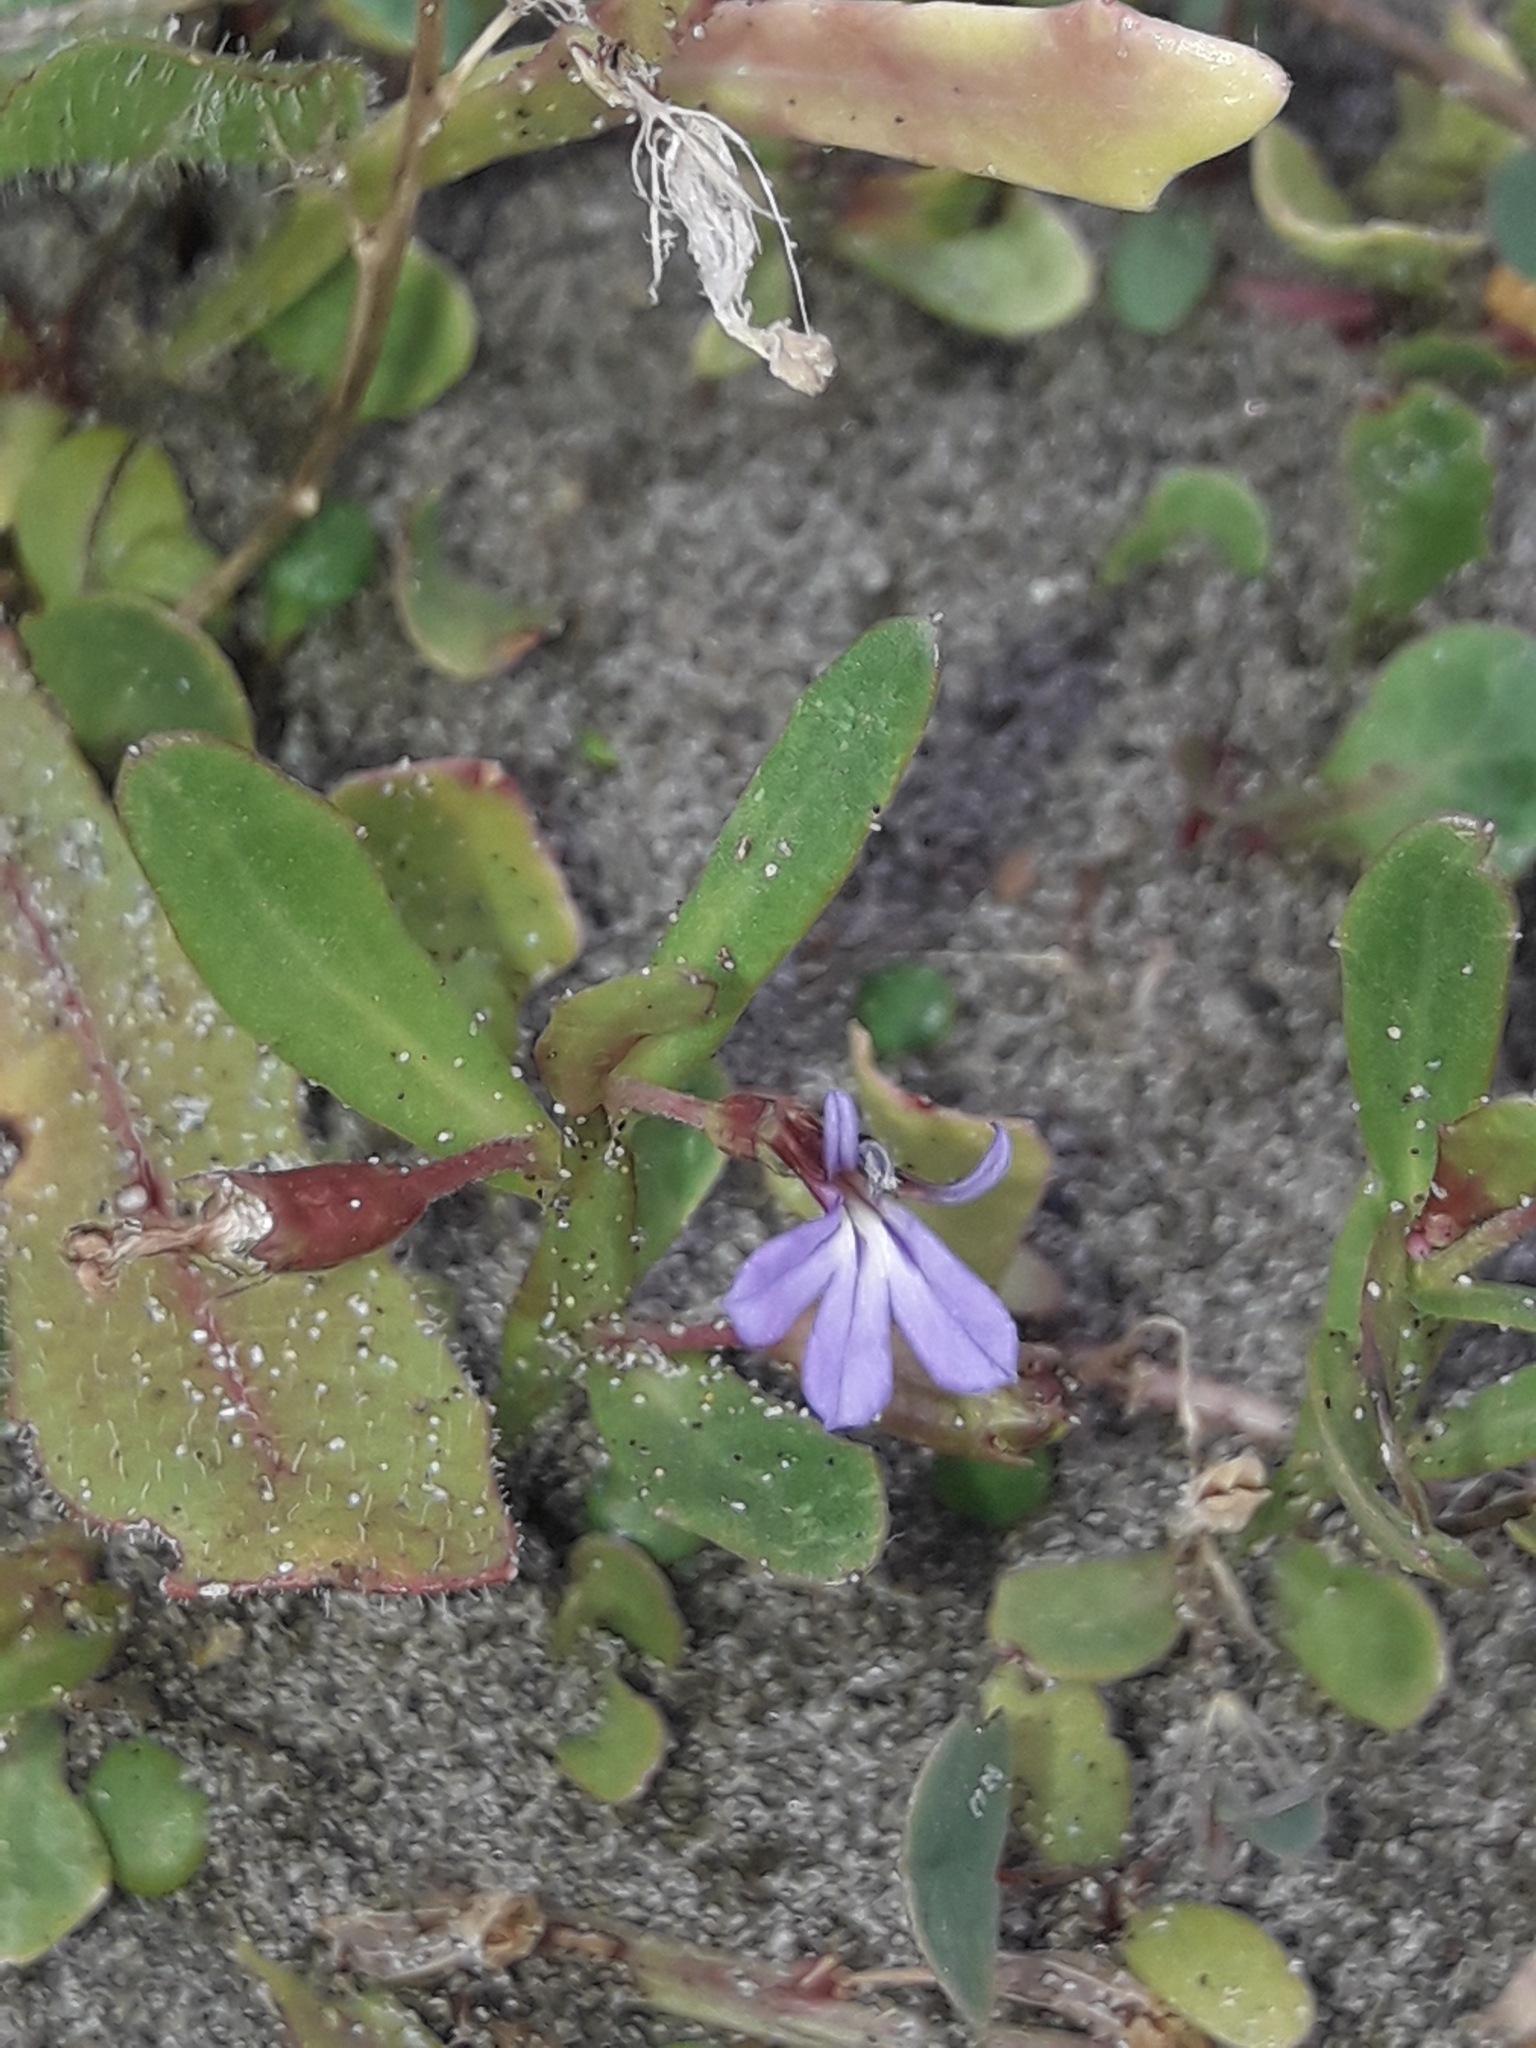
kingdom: Plantae
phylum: Tracheophyta
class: Magnoliopsida
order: Asterales
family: Campanulaceae
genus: Lobelia
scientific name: Lobelia anceps
